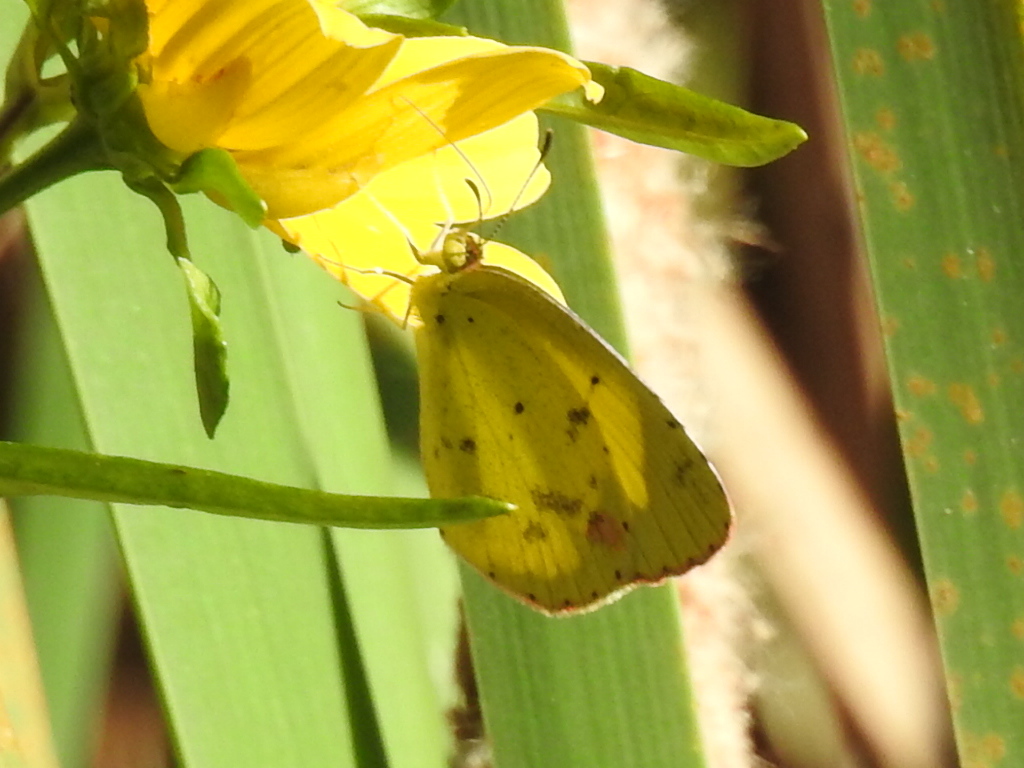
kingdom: Animalia
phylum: Arthropoda
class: Insecta
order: Lepidoptera
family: Pieridae
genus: Pyrisitia
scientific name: Pyrisitia lisa
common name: Little yellow
